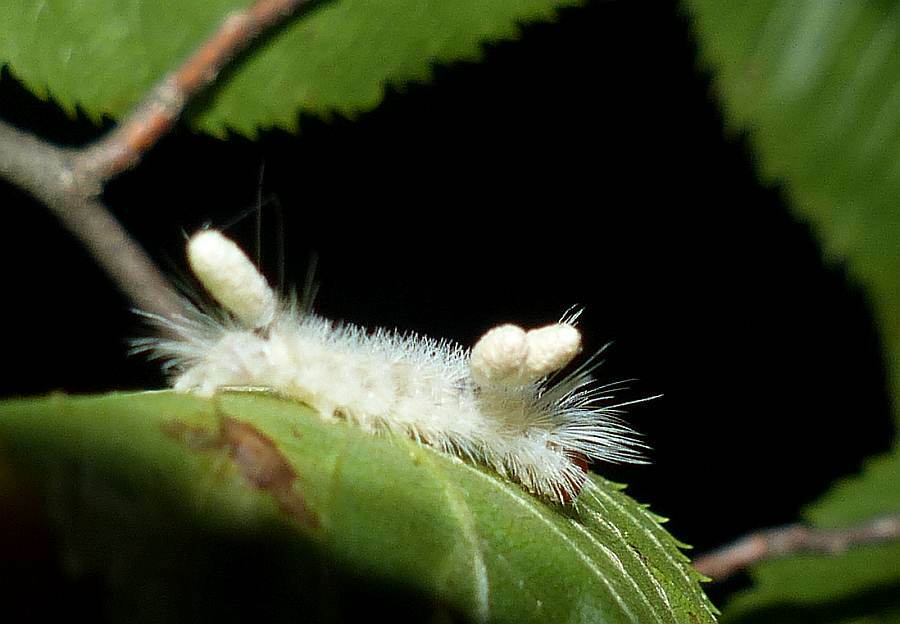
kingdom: Animalia
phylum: Arthropoda
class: Insecta
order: Lepidoptera
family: Erebidae
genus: Halysidota
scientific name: Halysidota tessellaris
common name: Banded tussock moth
